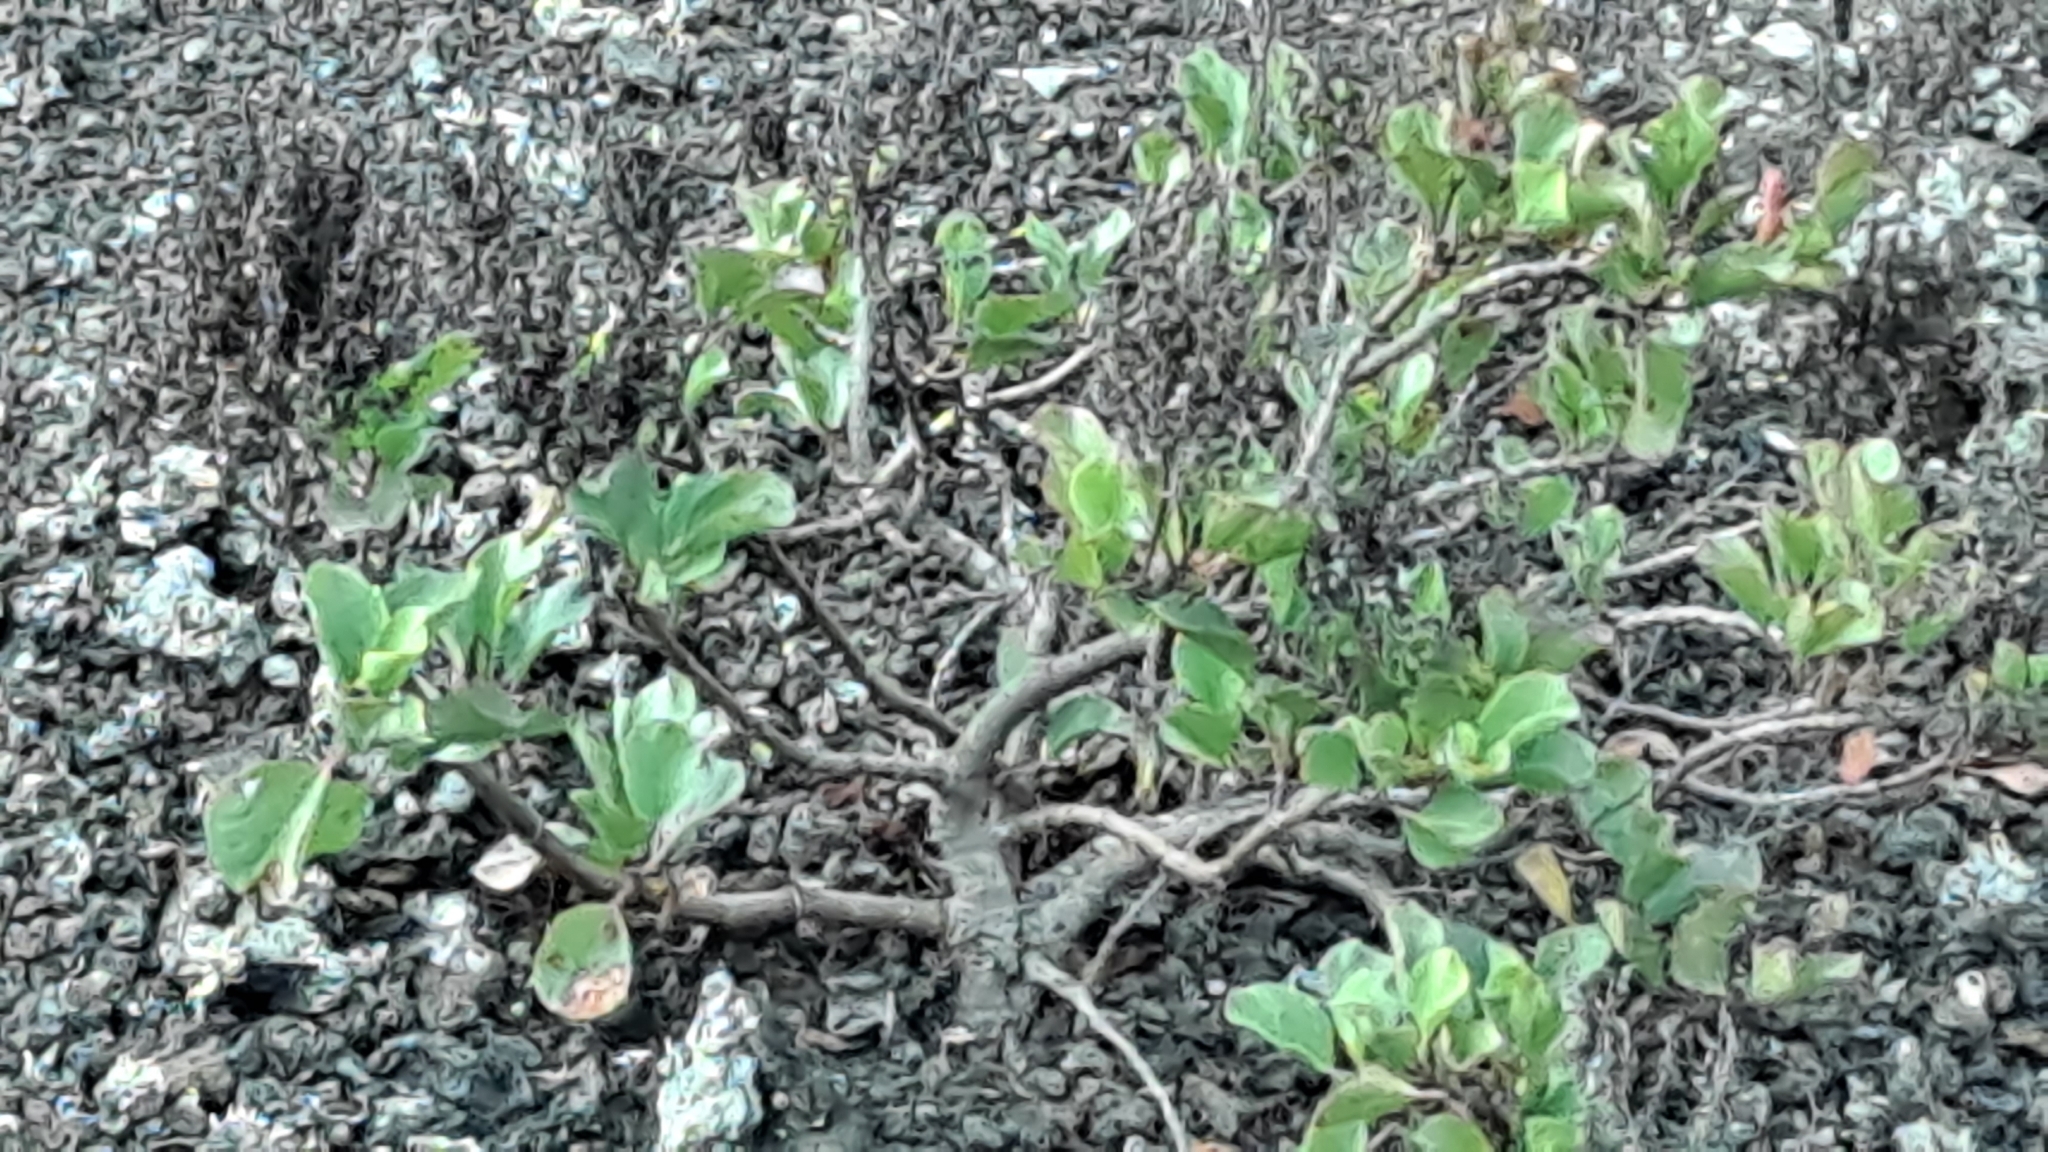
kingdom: Plantae
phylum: Tracheophyta
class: Magnoliopsida
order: Caryophyllales
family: Polygonaceae
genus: Rumex
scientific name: Rumex lunaria
